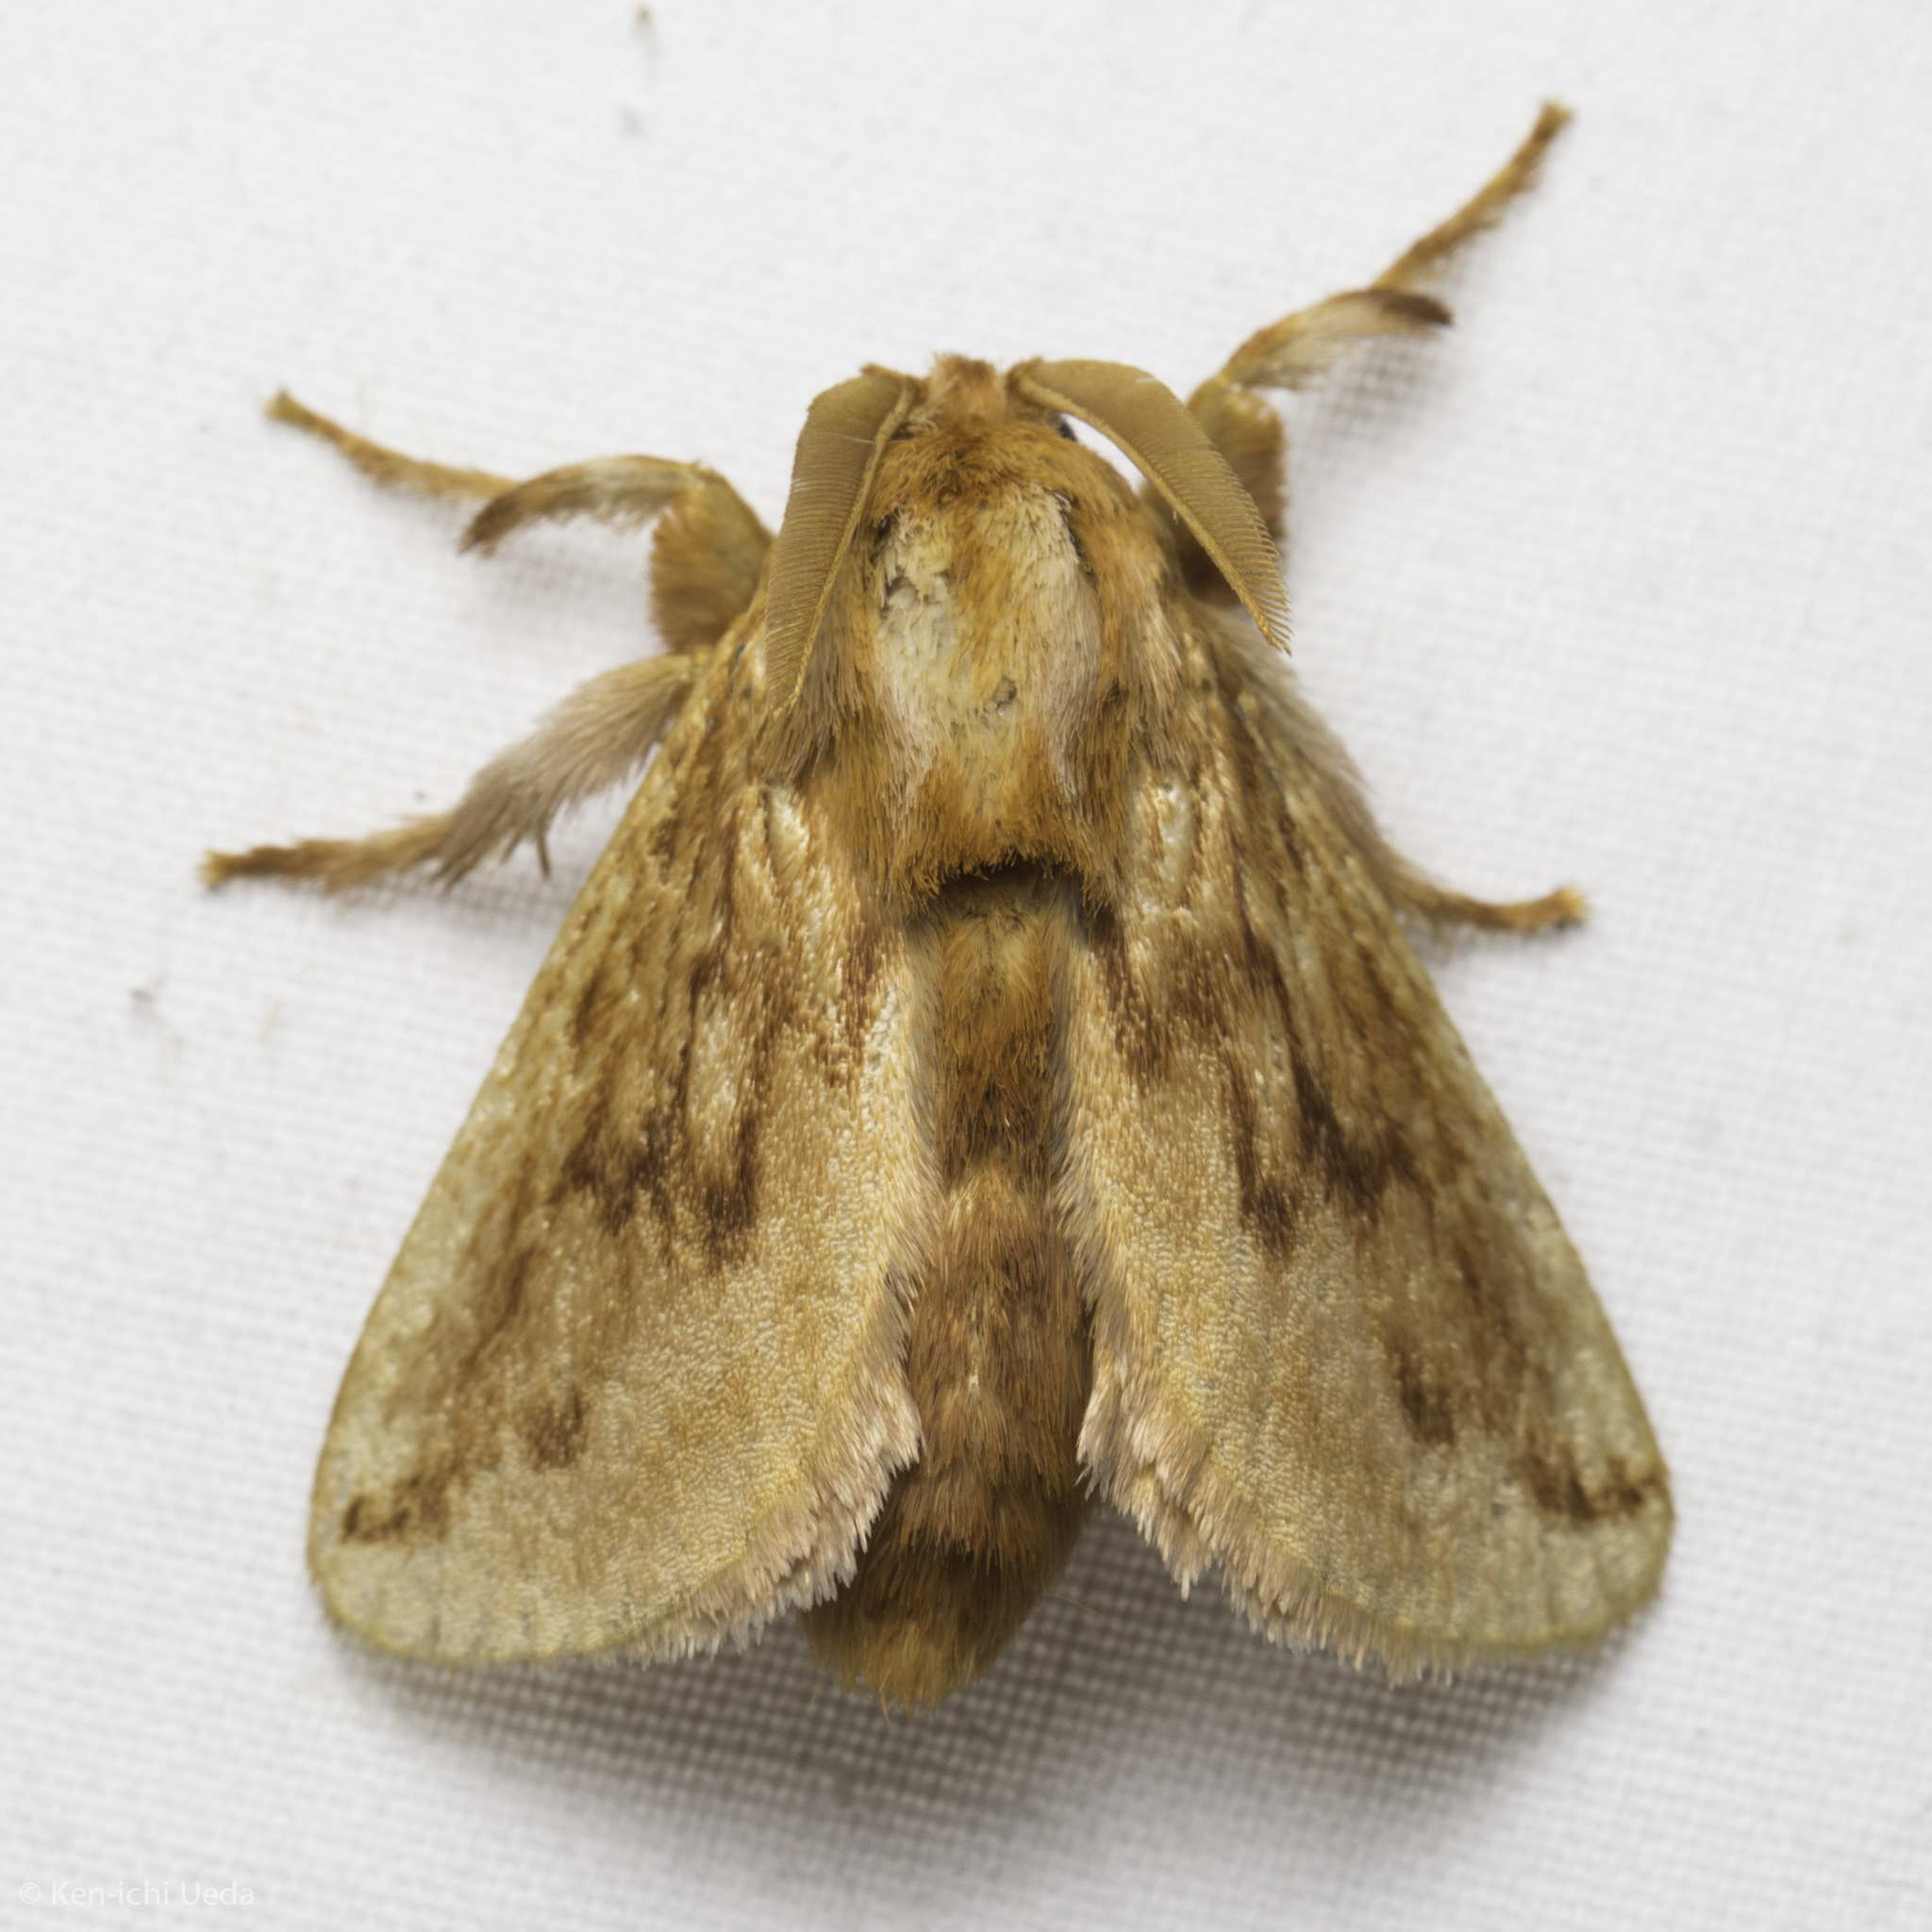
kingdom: Animalia
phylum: Arthropoda
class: Insecta
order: Lepidoptera
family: Limacodidae
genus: Perola
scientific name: Perola sericea
